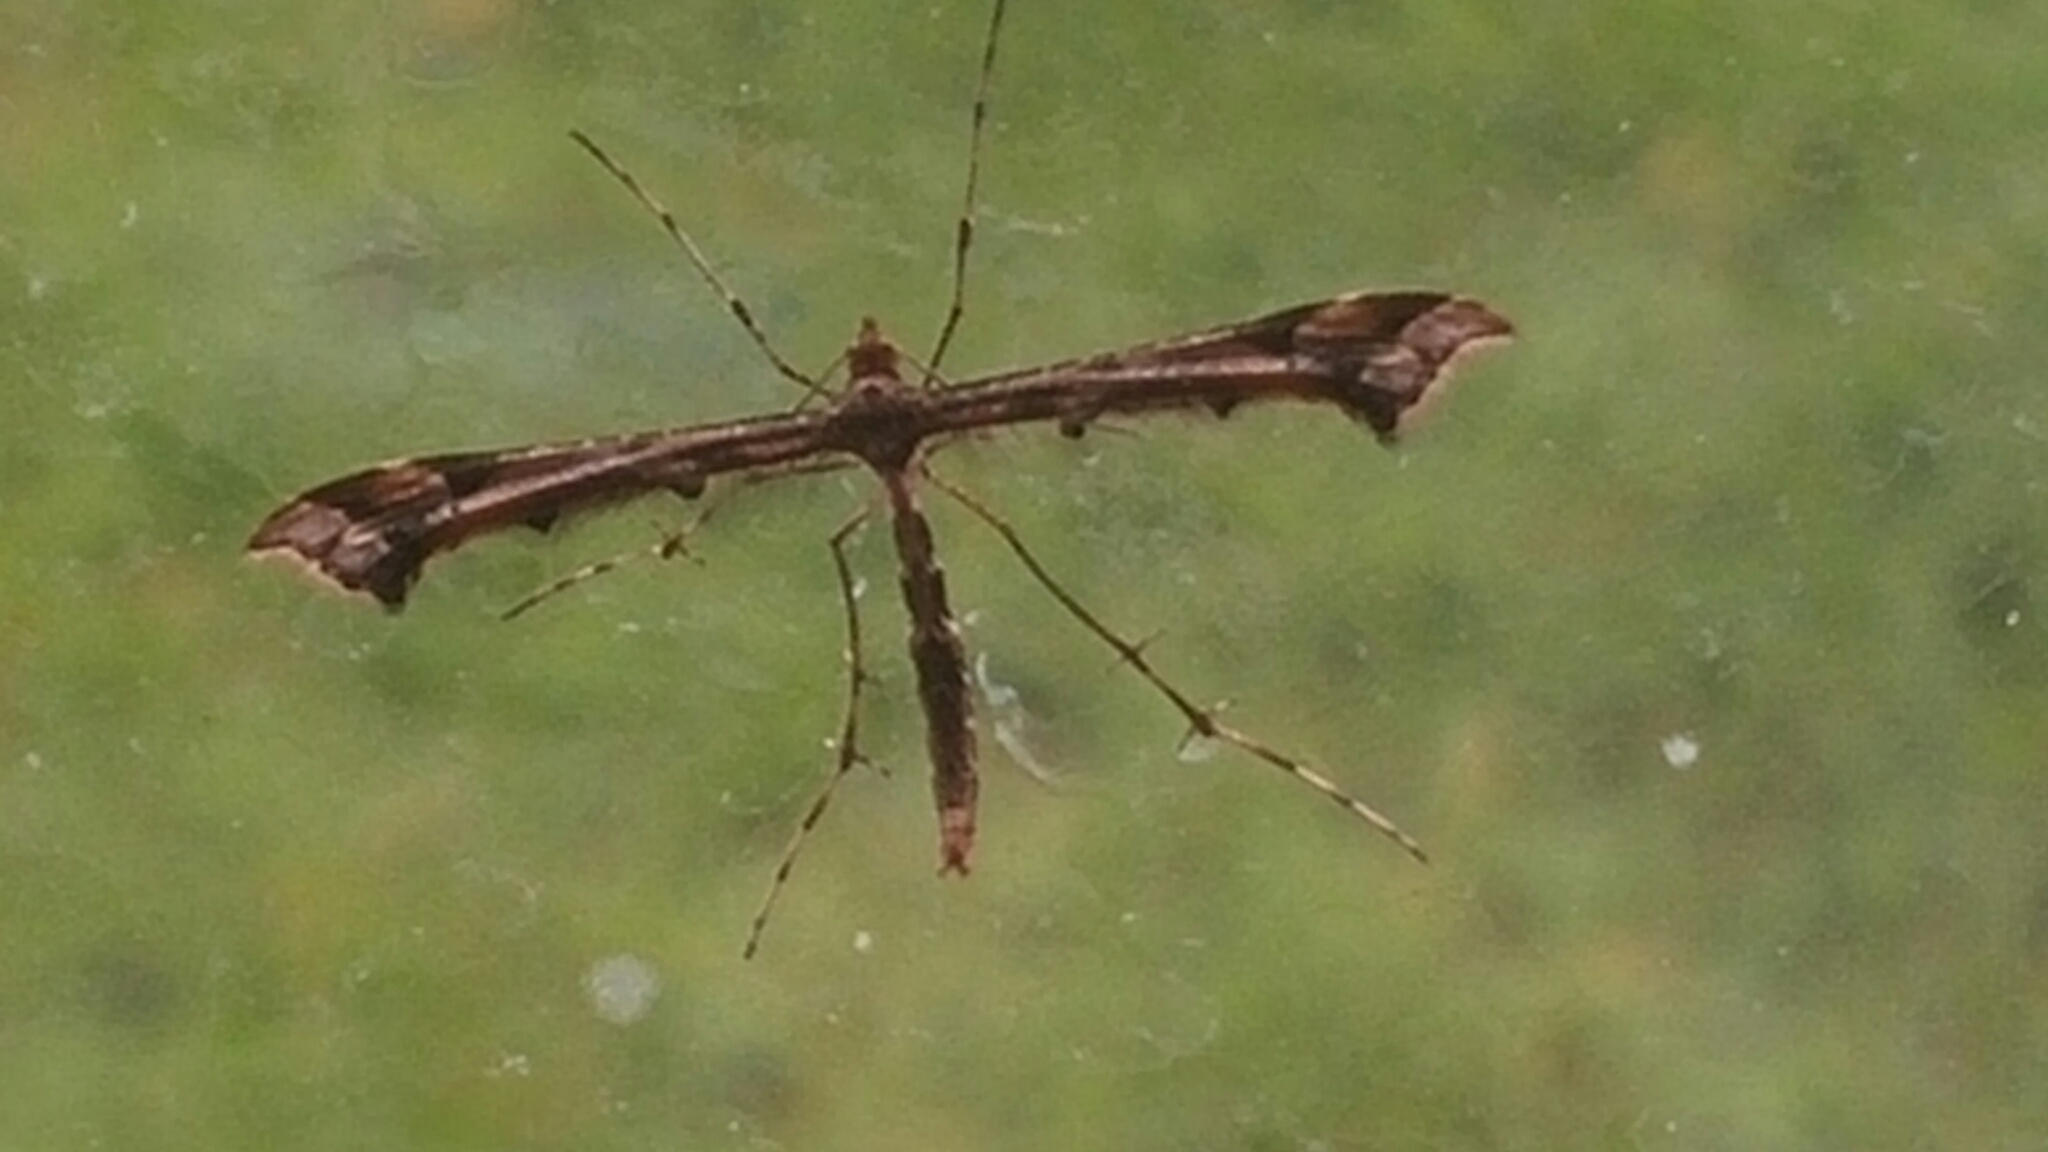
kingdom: Animalia
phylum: Arthropoda
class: Insecta
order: Lepidoptera
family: Pterophoridae
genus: Amblyptilia
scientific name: Amblyptilia acanthadactyla
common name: Beautiful plume
